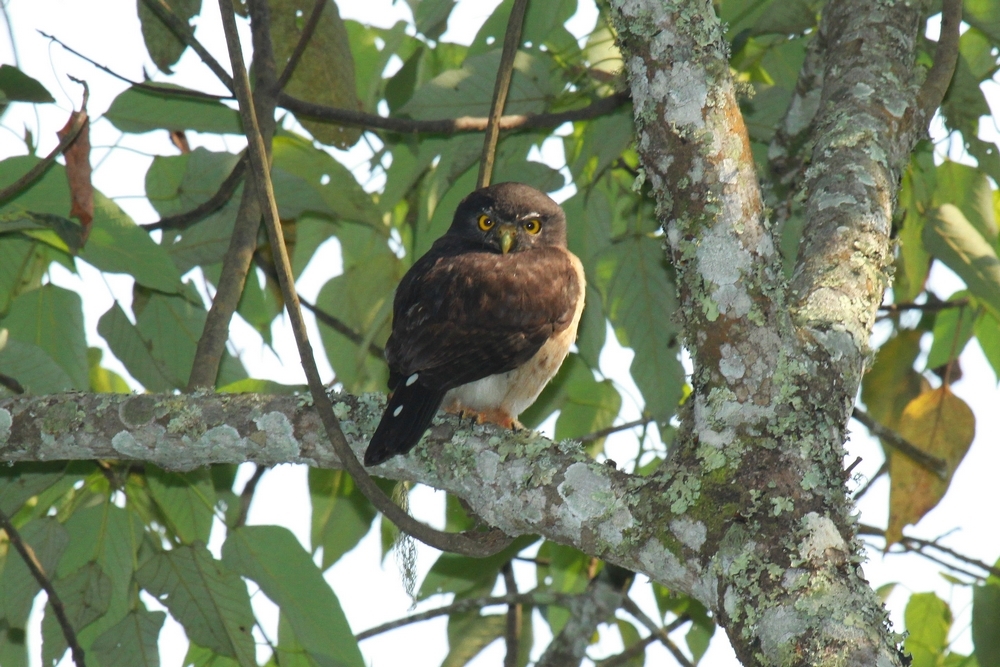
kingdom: Animalia
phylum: Chordata
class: Aves
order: Strigiformes
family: Strigidae
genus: Glaucidium
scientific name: Glaucidium tephronotum
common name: Red-chested owlet
